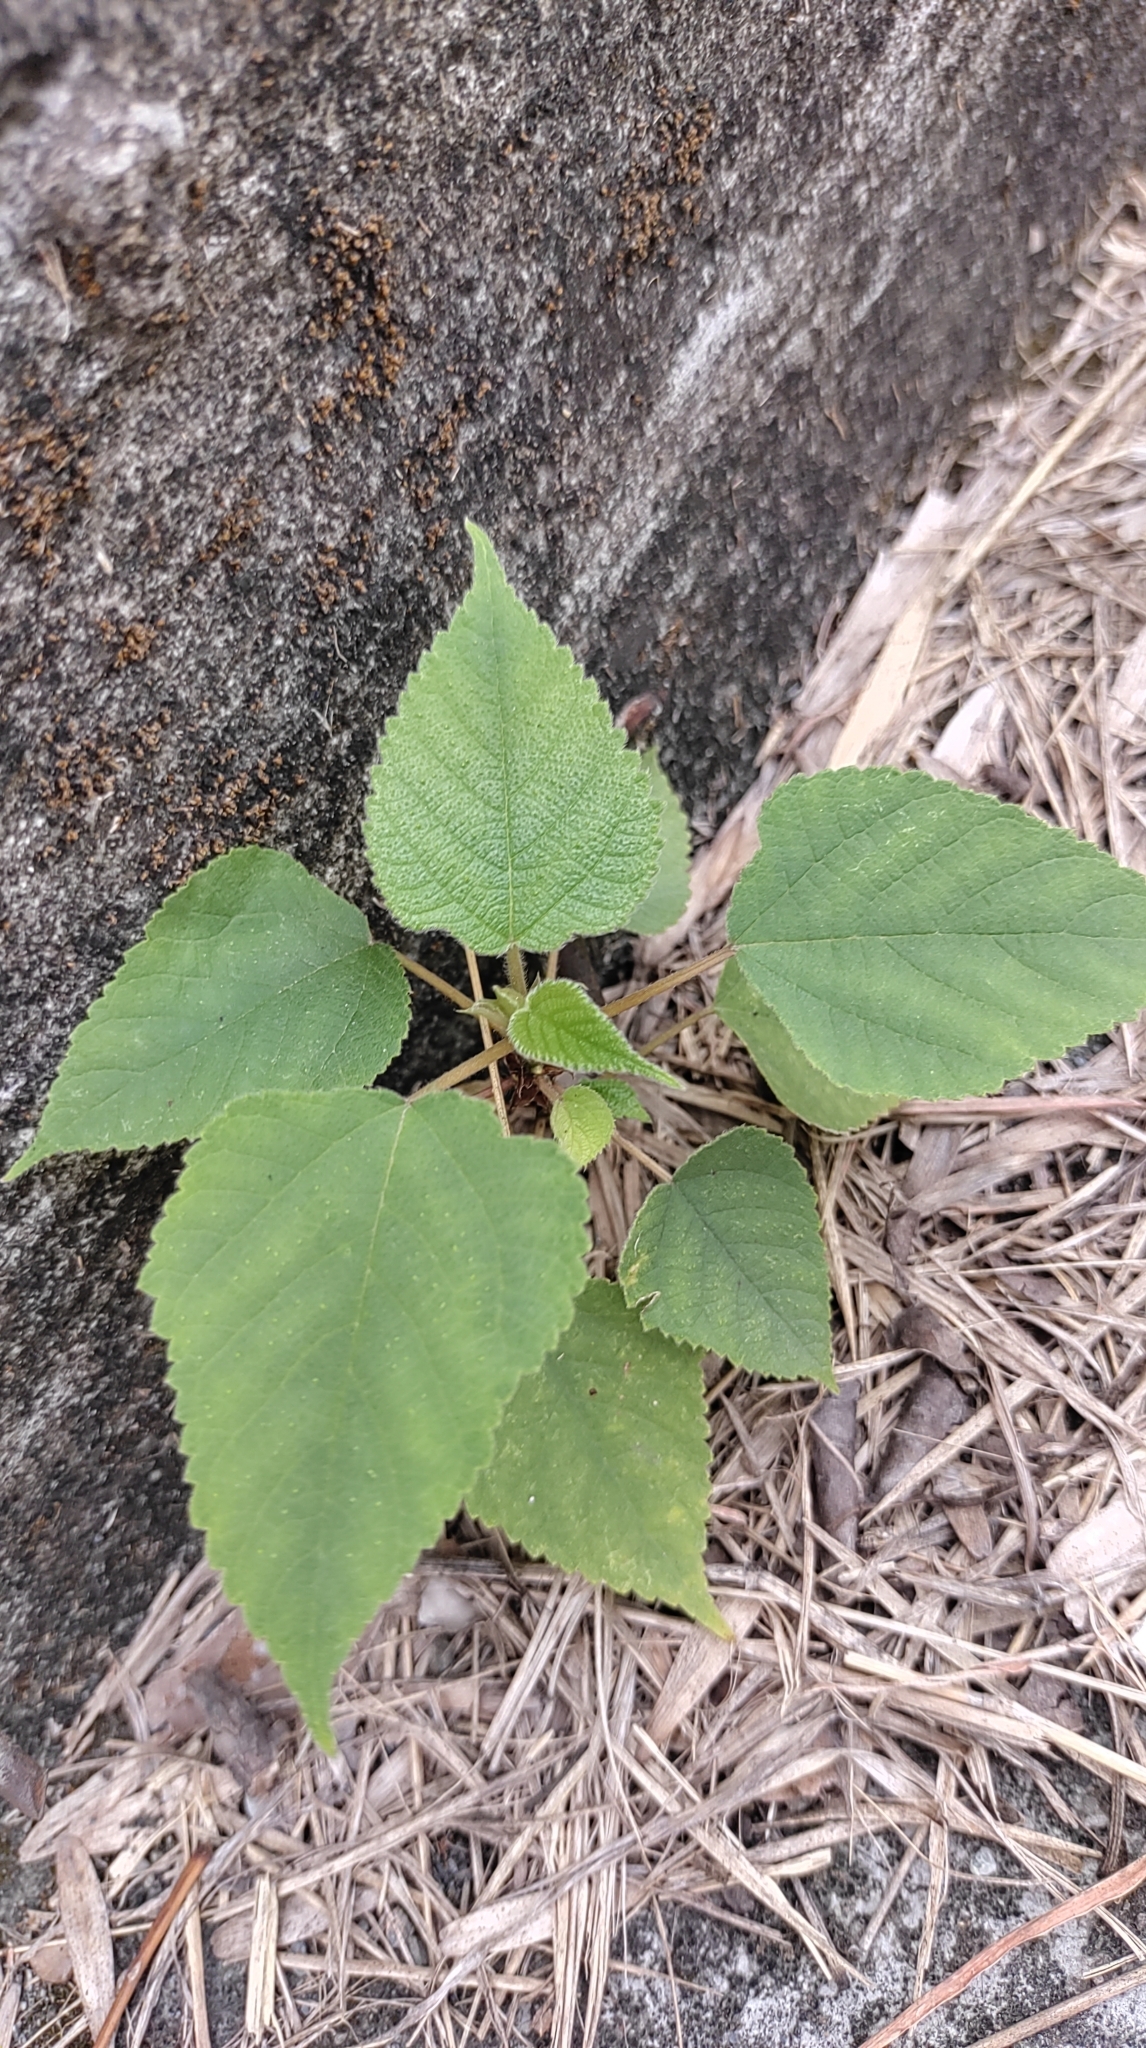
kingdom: Plantae
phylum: Tracheophyta
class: Magnoliopsida
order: Rosales
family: Moraceae
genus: Broussonetia
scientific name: Broussonetia papyrifera
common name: Paper mulberry
